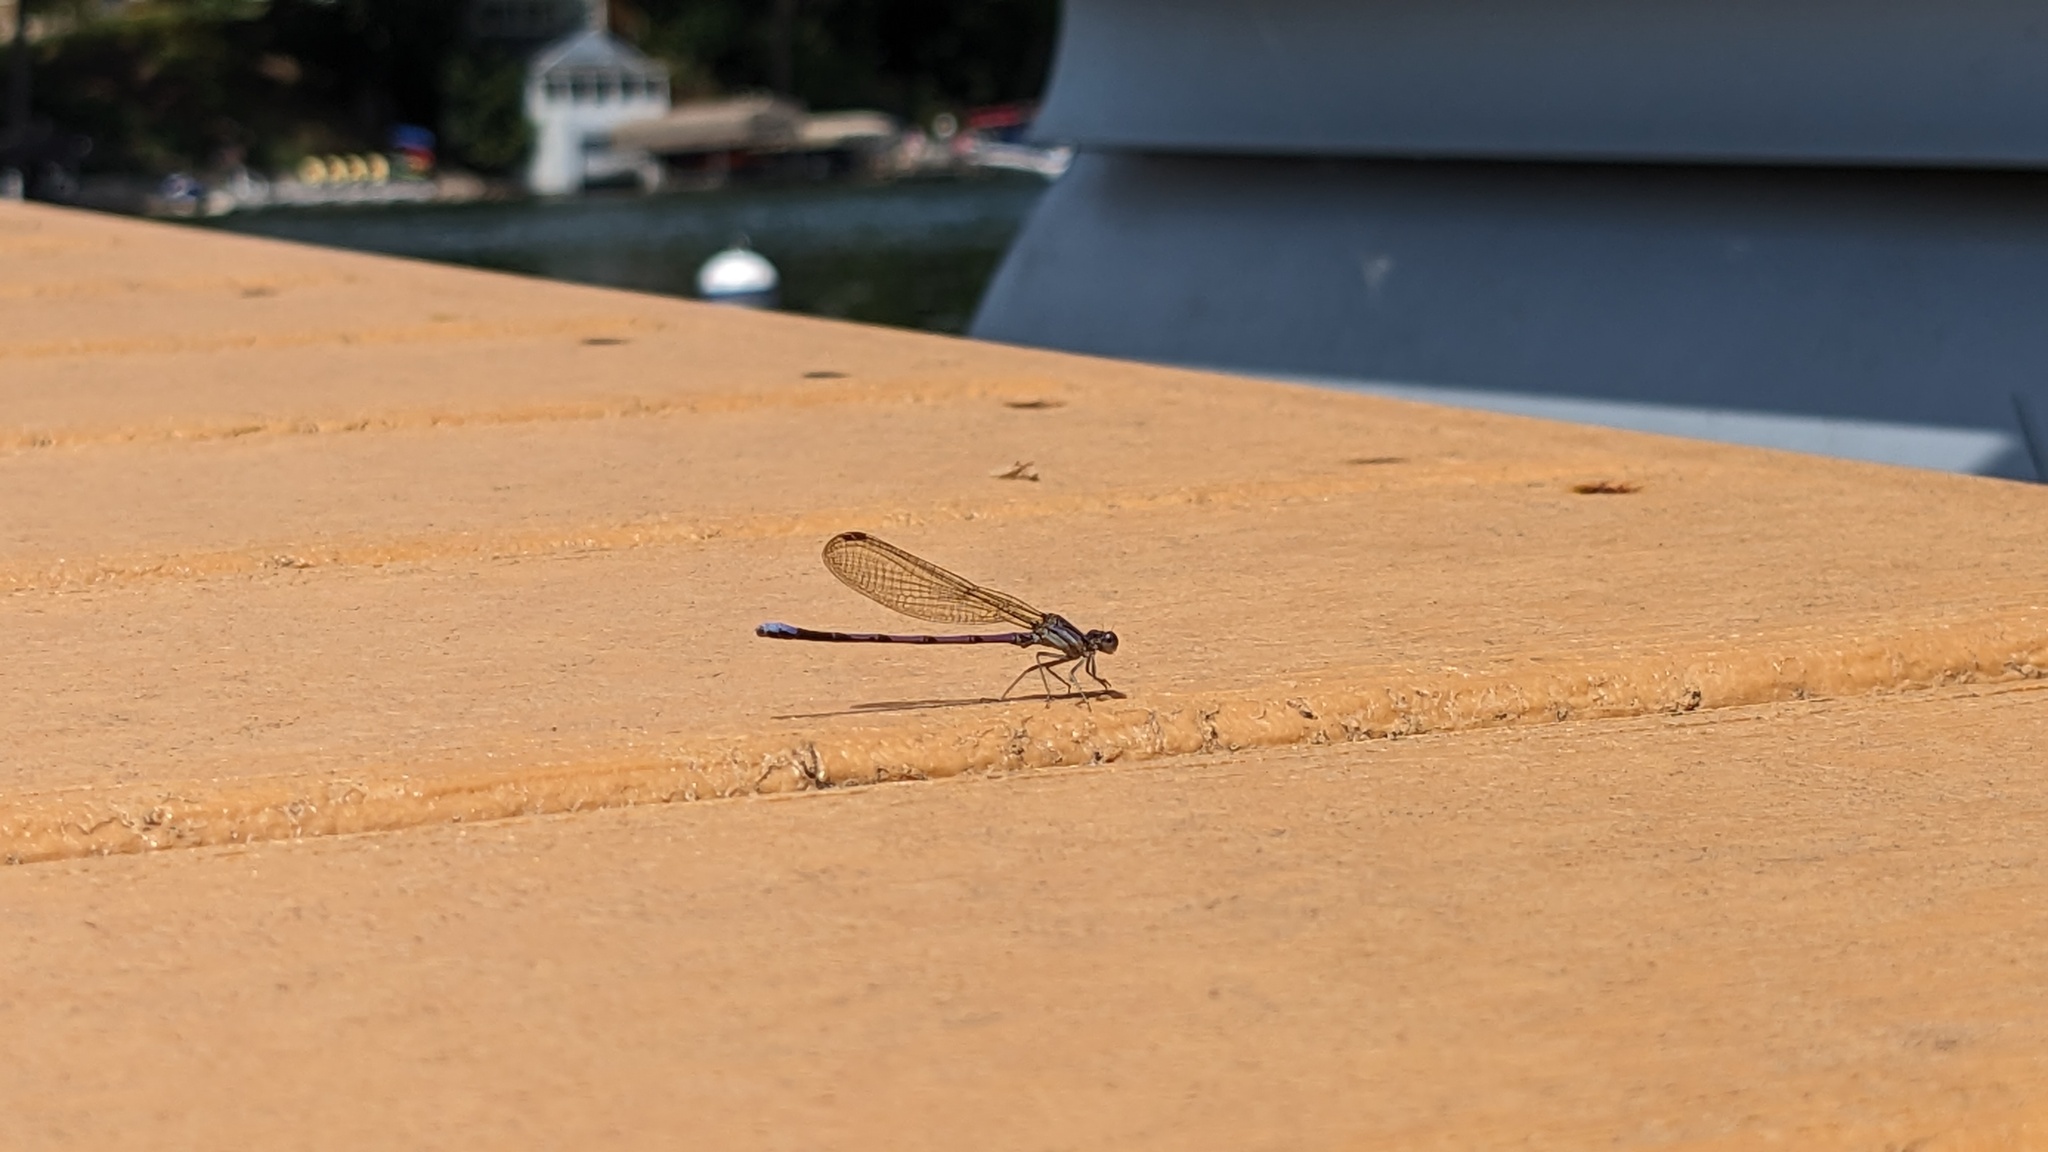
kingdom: Animalia
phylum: Arthropoda
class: Insecta
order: Odonata
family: Coenagrionidae
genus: Argia
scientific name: Argia fumipennis
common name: Variable dancer
